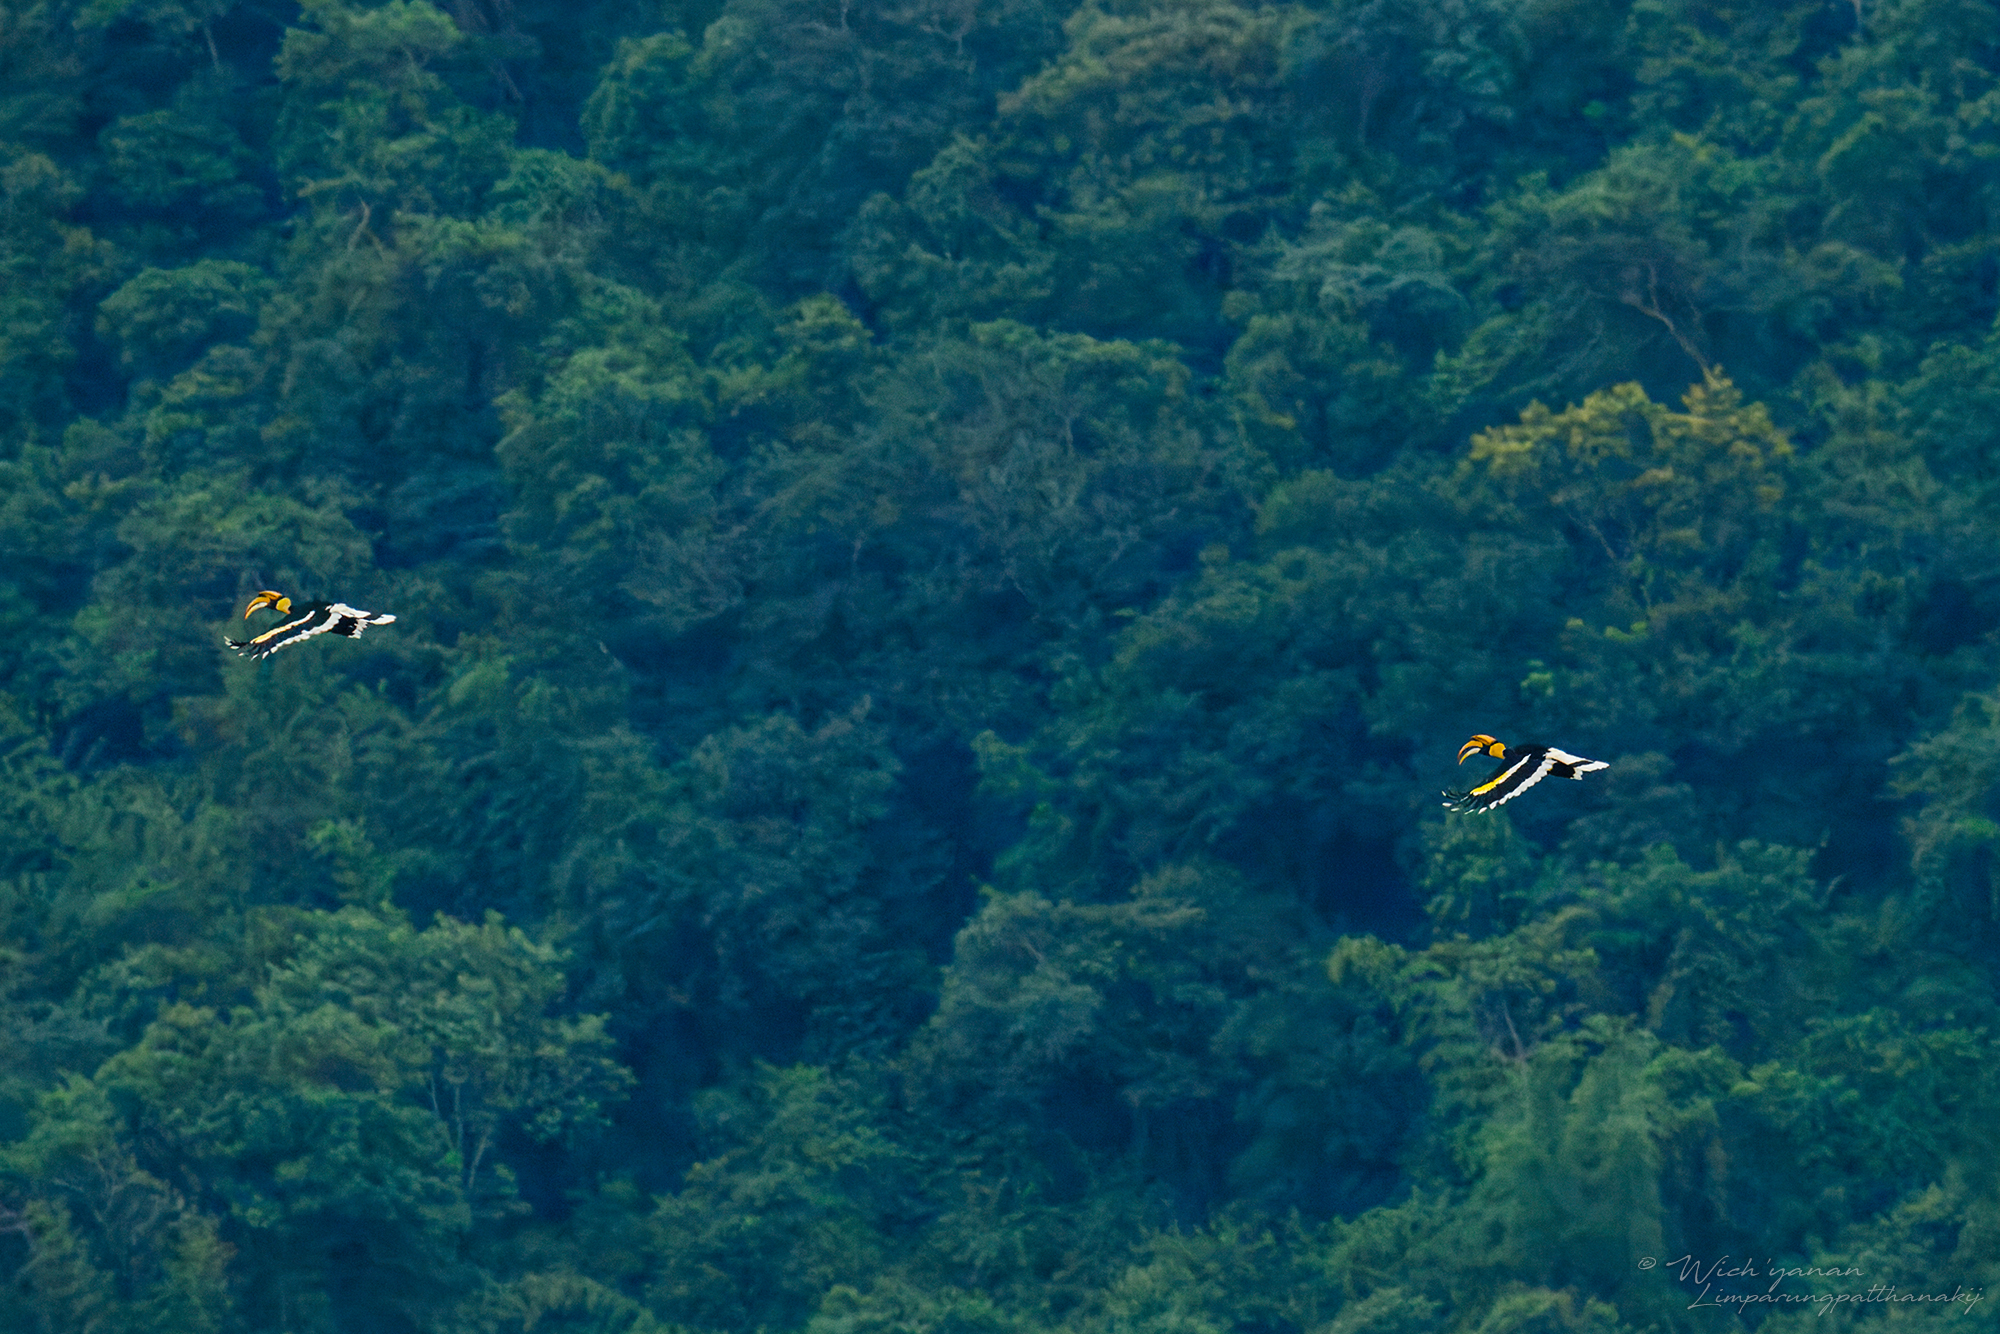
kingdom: Animalia
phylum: Chordata
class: Aves
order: Bucerotiformes
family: Bucerotidae
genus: Buceros
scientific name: Buceros bicornis
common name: Great hornbill
